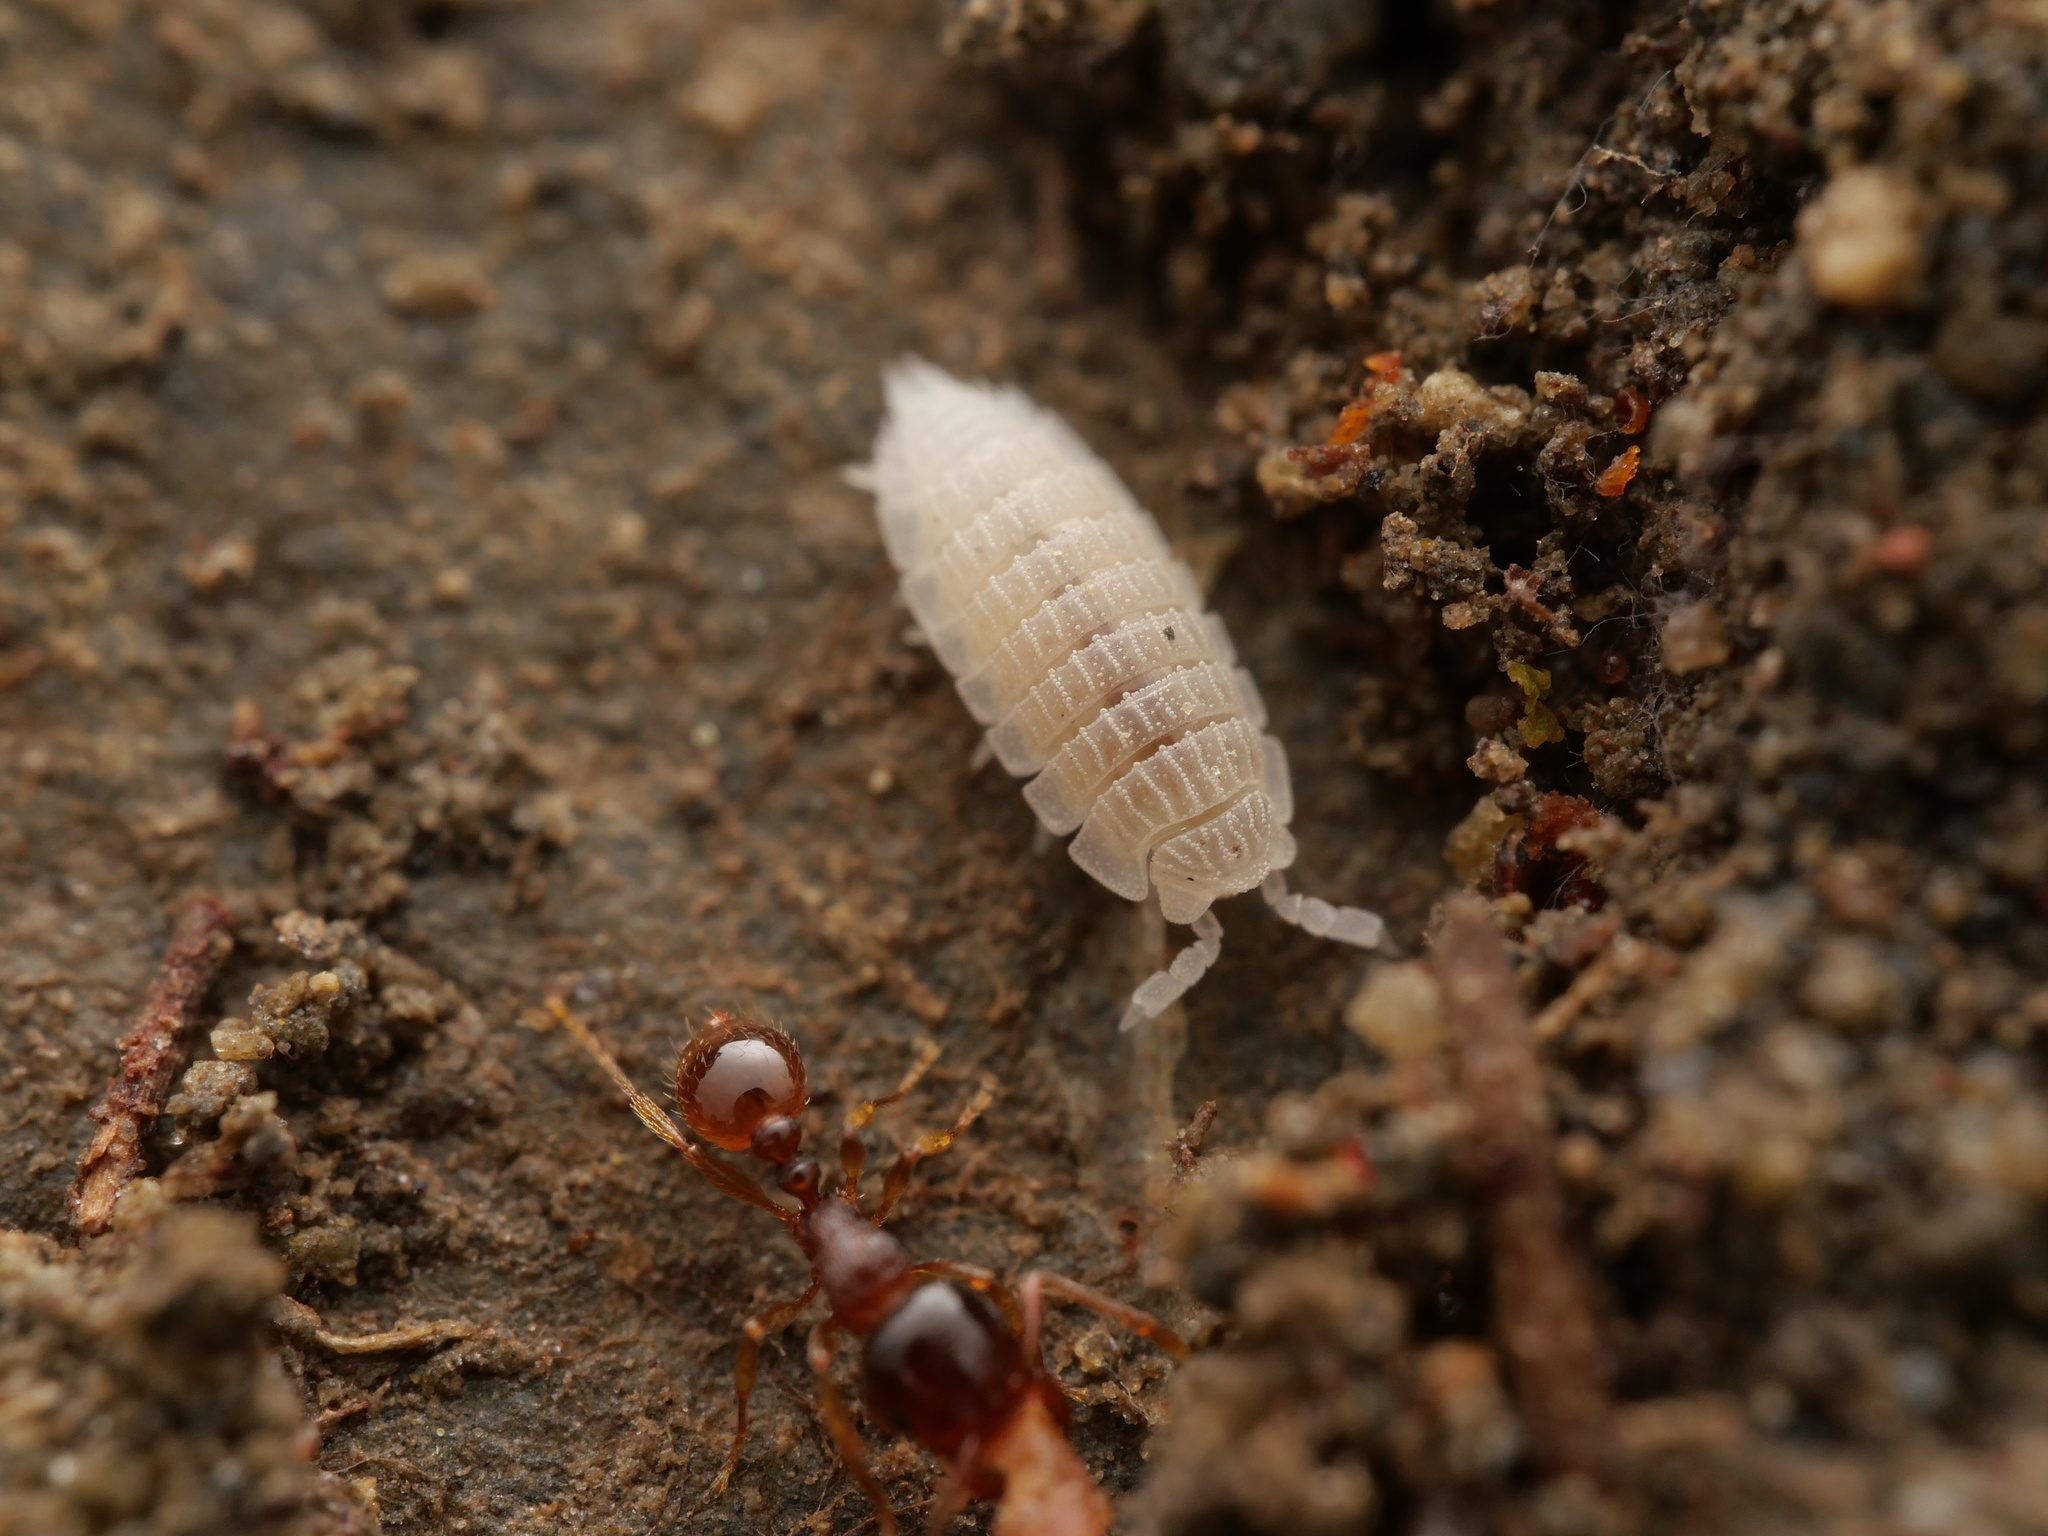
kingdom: Animalia
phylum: Arthropoda
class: Malacostraca
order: Isopoda
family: Platyarthridae
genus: Platyarthrus
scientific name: Platyarthrus schoblii
